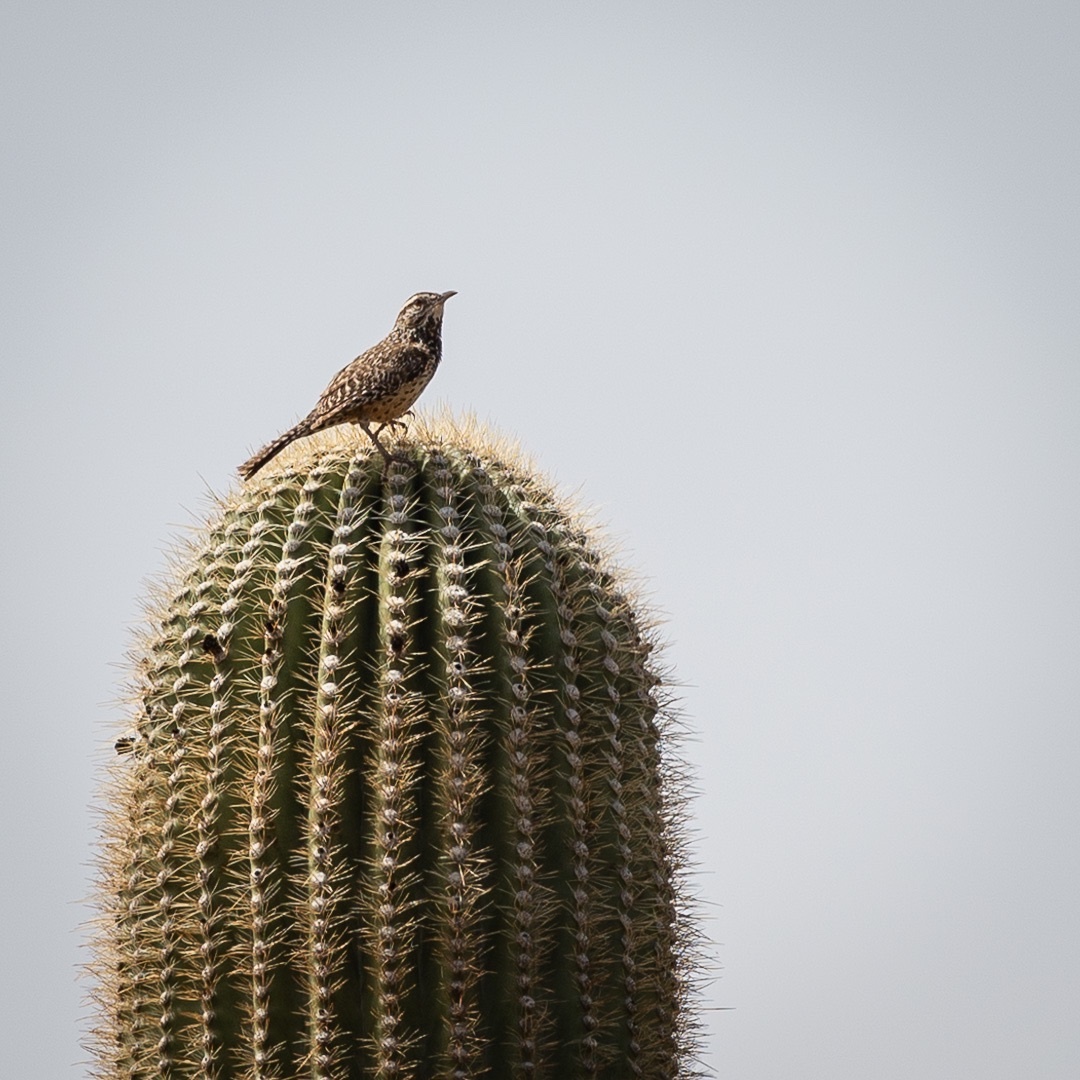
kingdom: Animalia
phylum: Chordata
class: Aves
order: Passeriformes
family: Troglodytidae
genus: Campylorhynchus
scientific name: Campylorhynchus brunneicapillus
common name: Cactus wren
